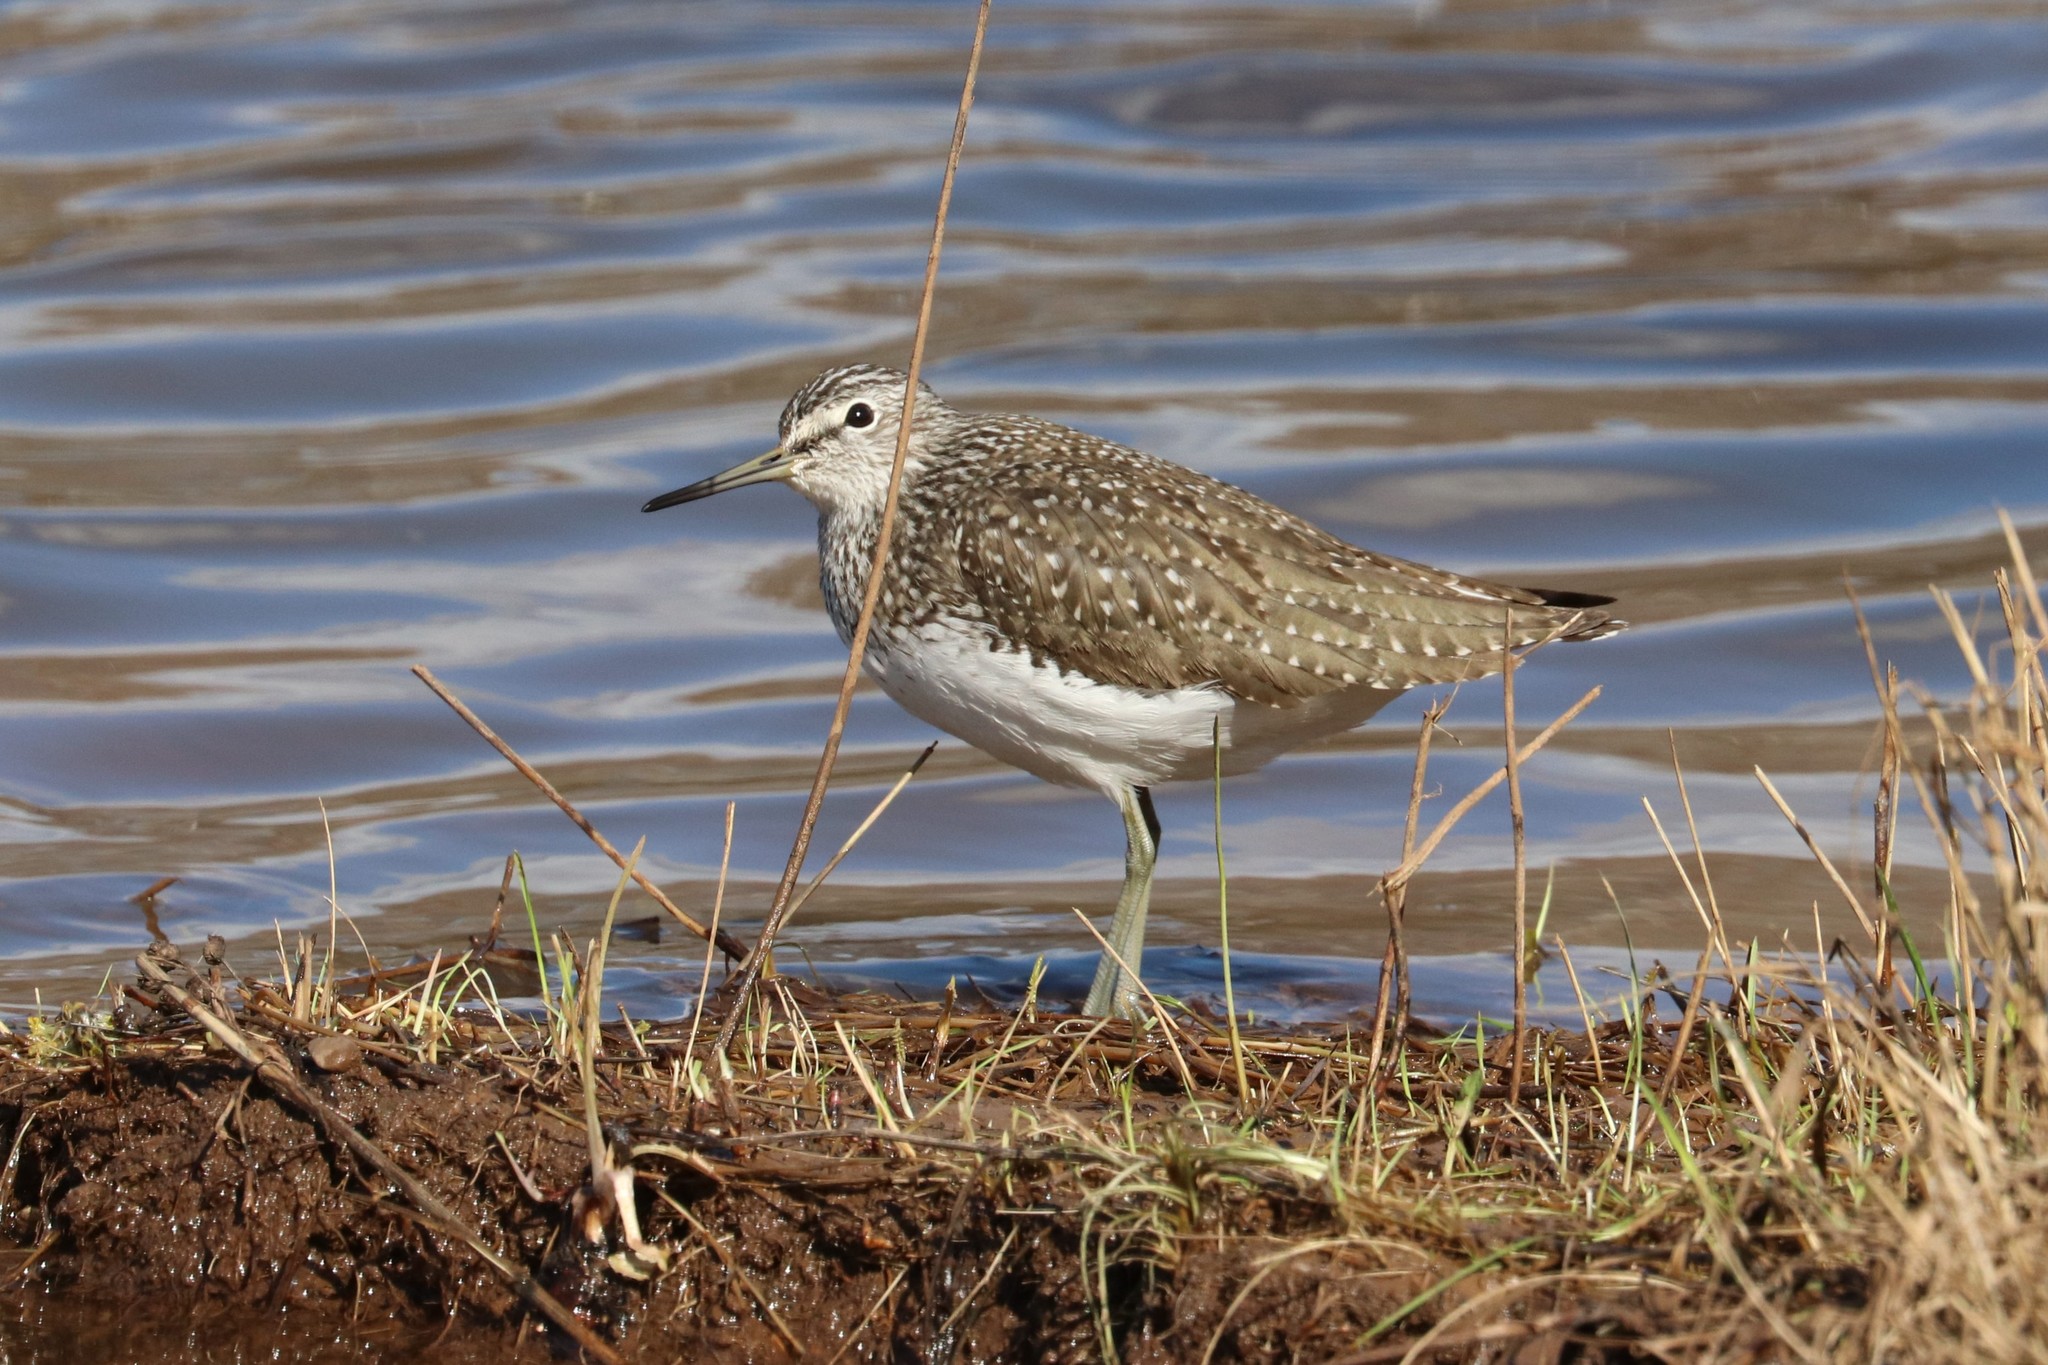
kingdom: Animalia
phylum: Chordata
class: Aves
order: Charadriiformes
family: Scolopacidae
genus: Tringa
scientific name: Tringa ochropus
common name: Green sandpiper
